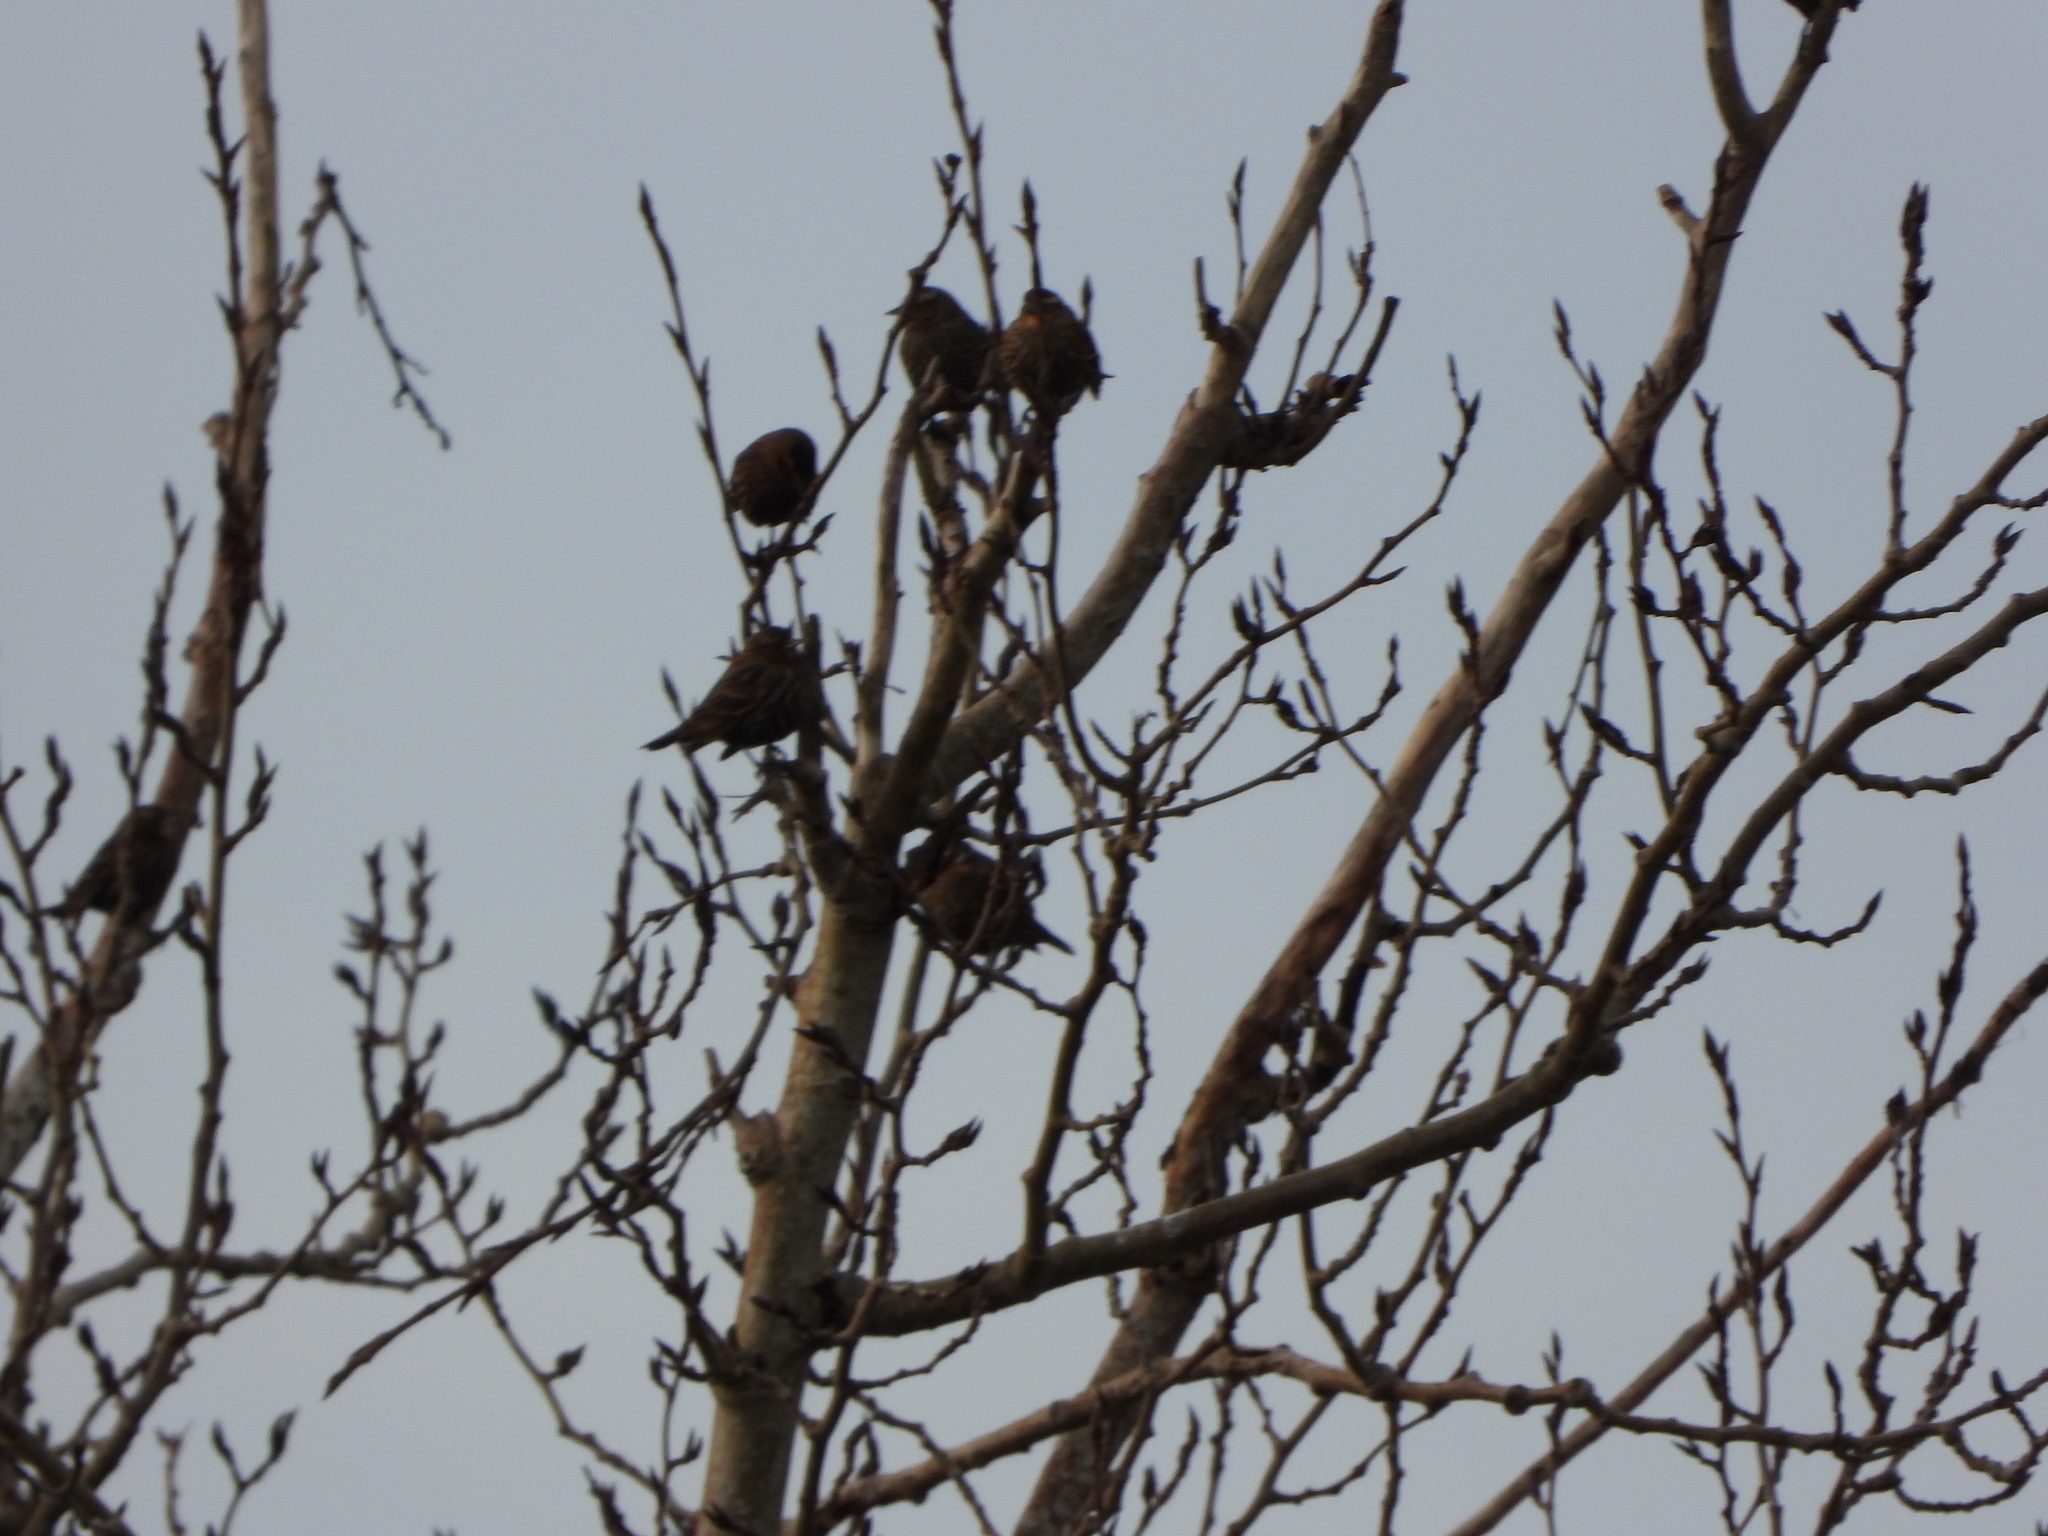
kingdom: Animalia
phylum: Chordata
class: Aves
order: Passeriformes
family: Icteridae
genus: Agelaius
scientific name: Agelaius phoeniceus
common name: Red-winged blackbird
